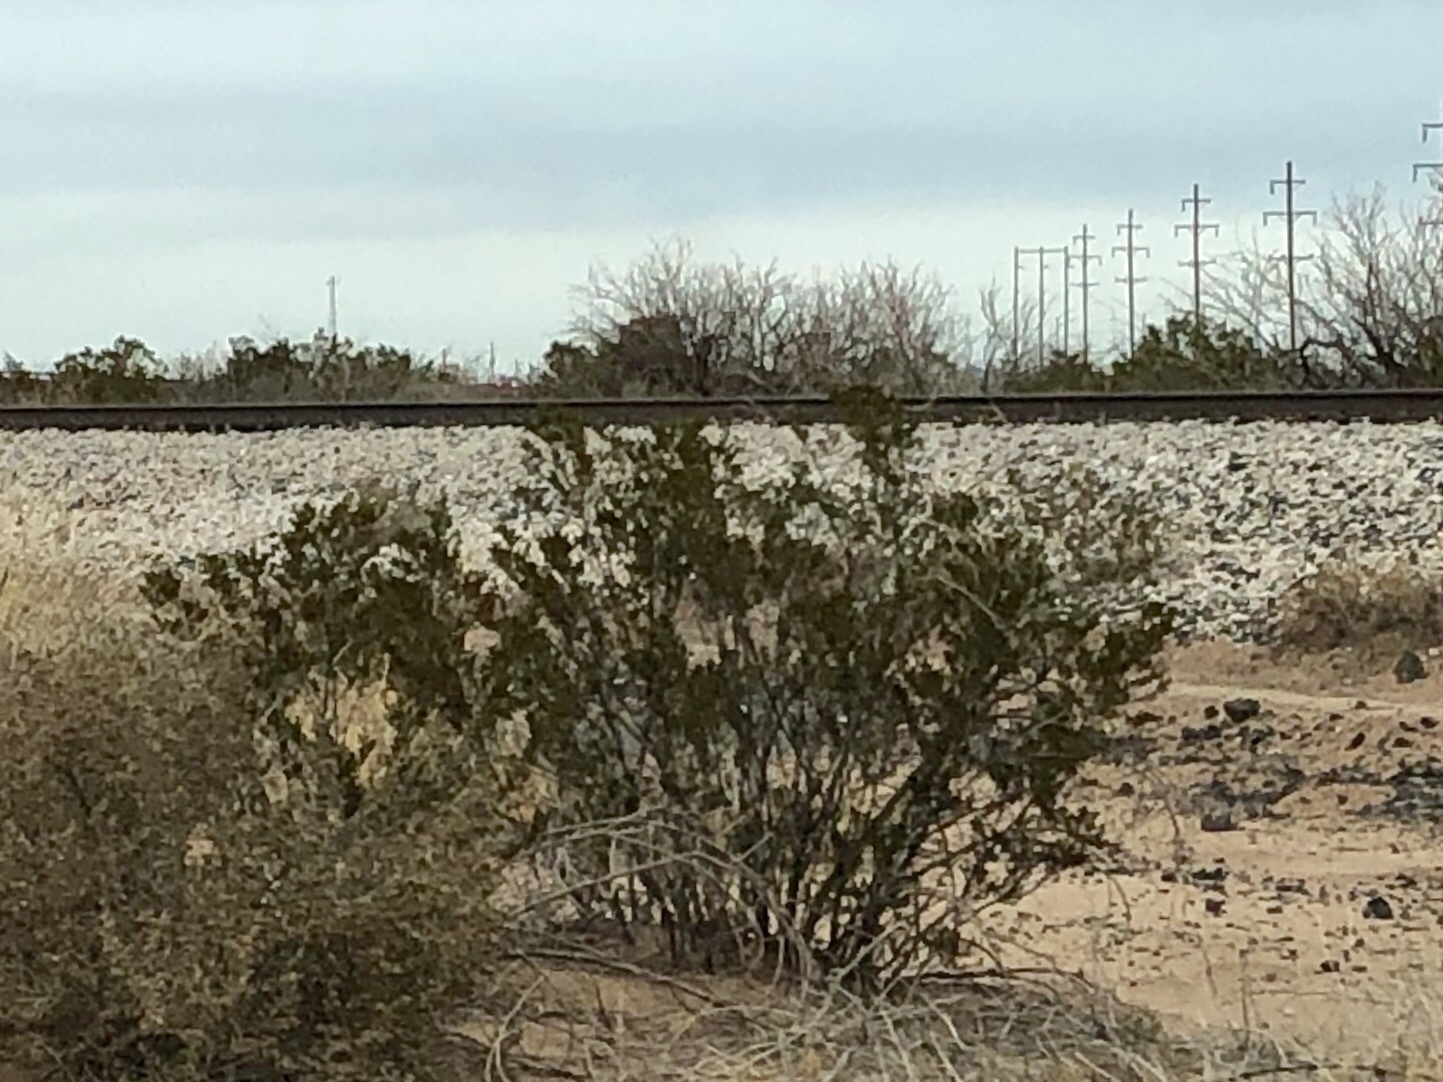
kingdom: Plantae
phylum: Tracheophyta
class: Magnoliopsida
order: Zygophyllales
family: Zygophyllaceae
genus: Larrea
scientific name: Larrea tridentata
